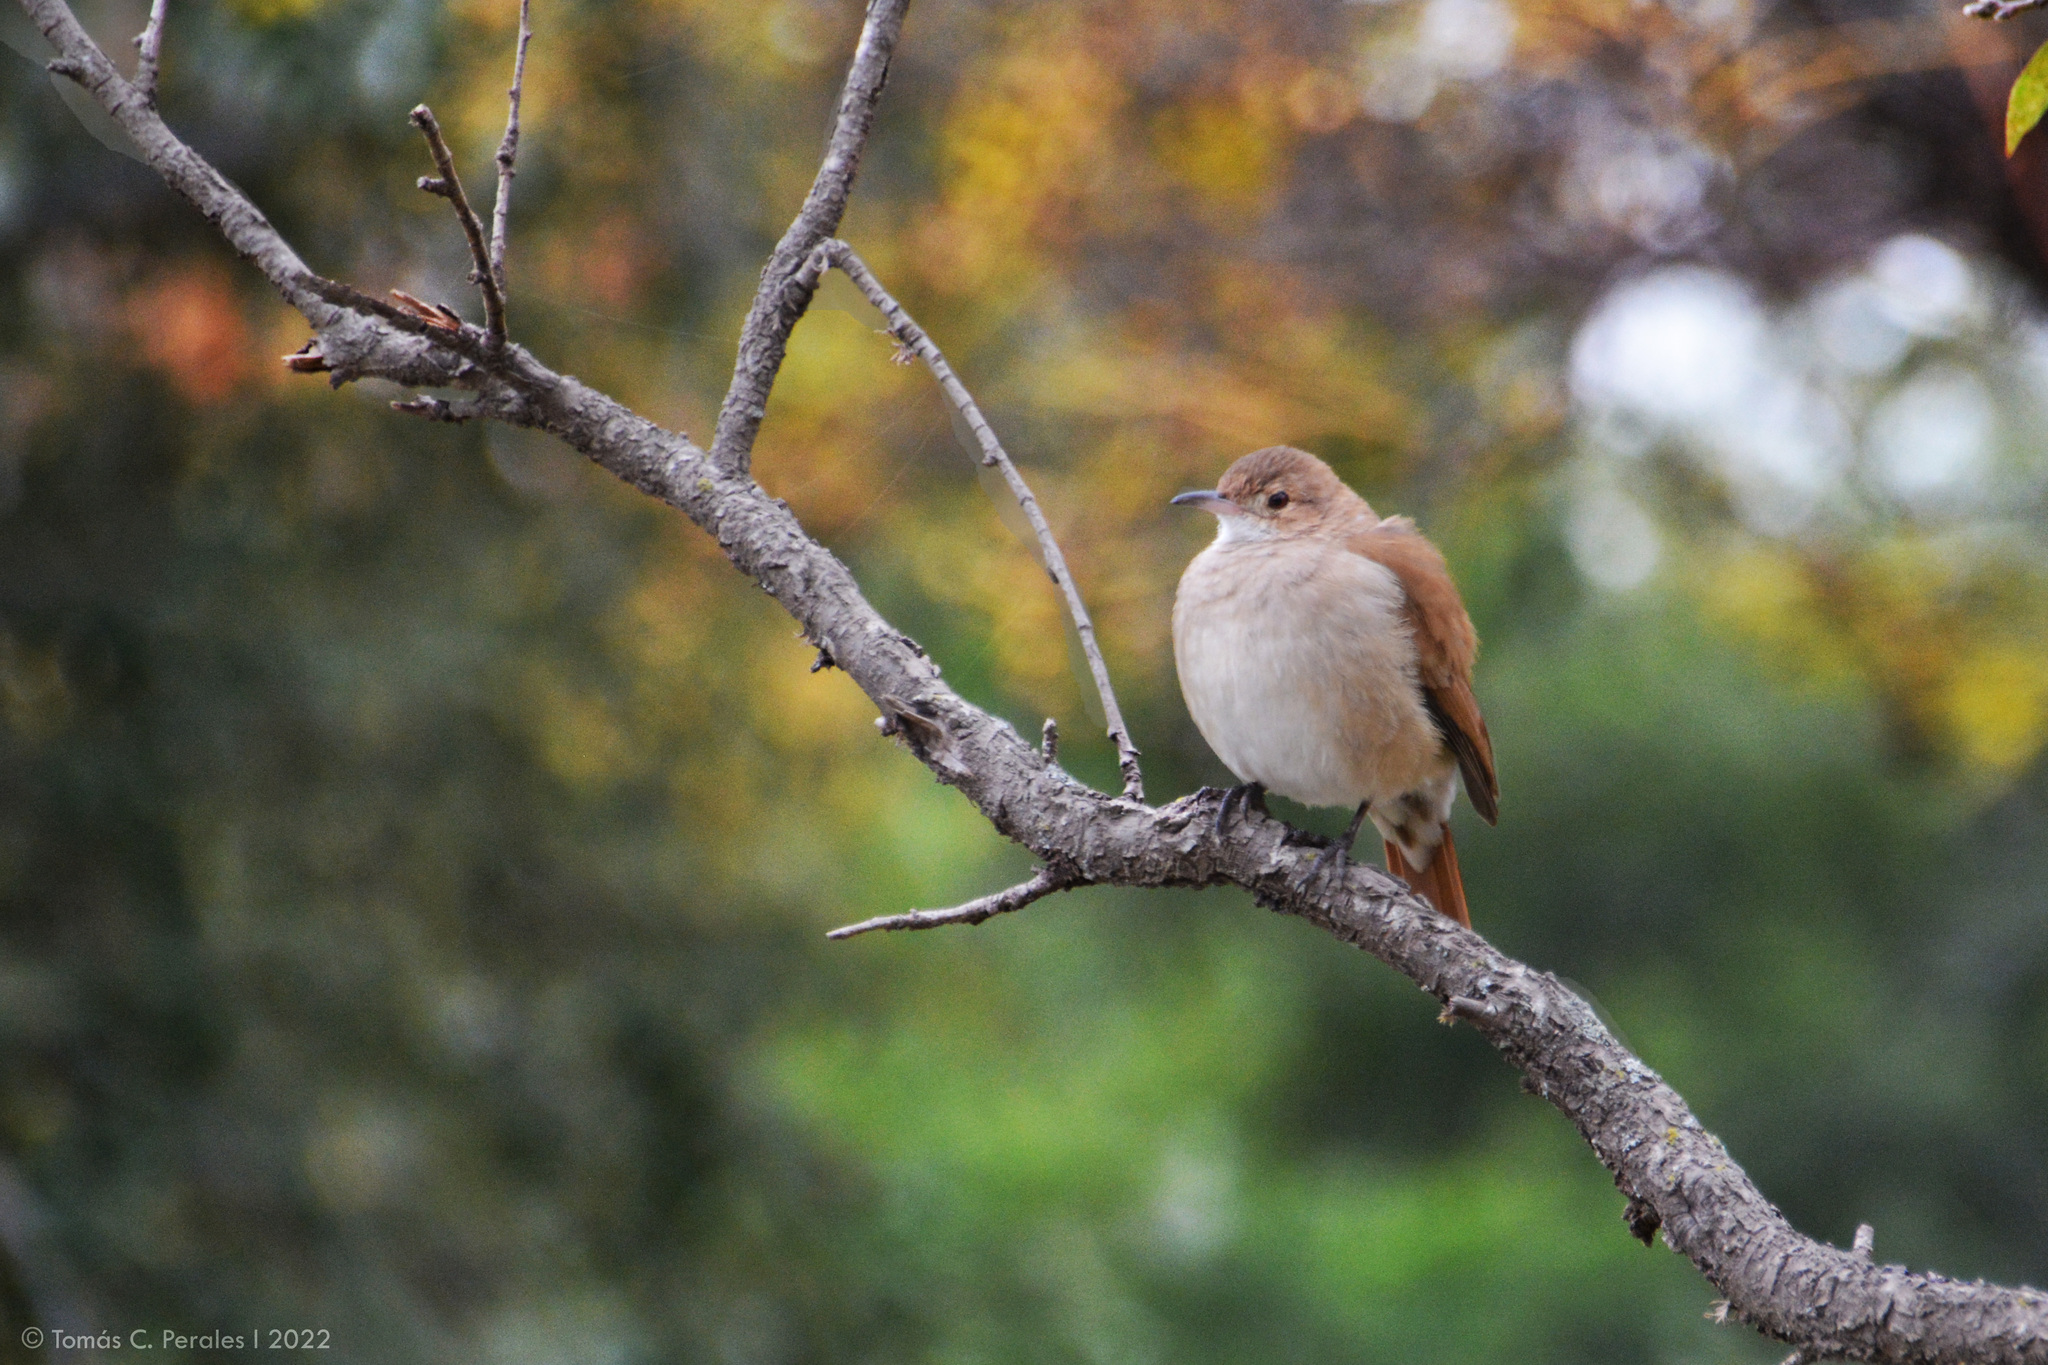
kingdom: Animalia
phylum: Chordata
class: Aves
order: Passeriformes
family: Furnariidae
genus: Furnarius
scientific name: Furnarius rufus
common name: Rufous hornero
